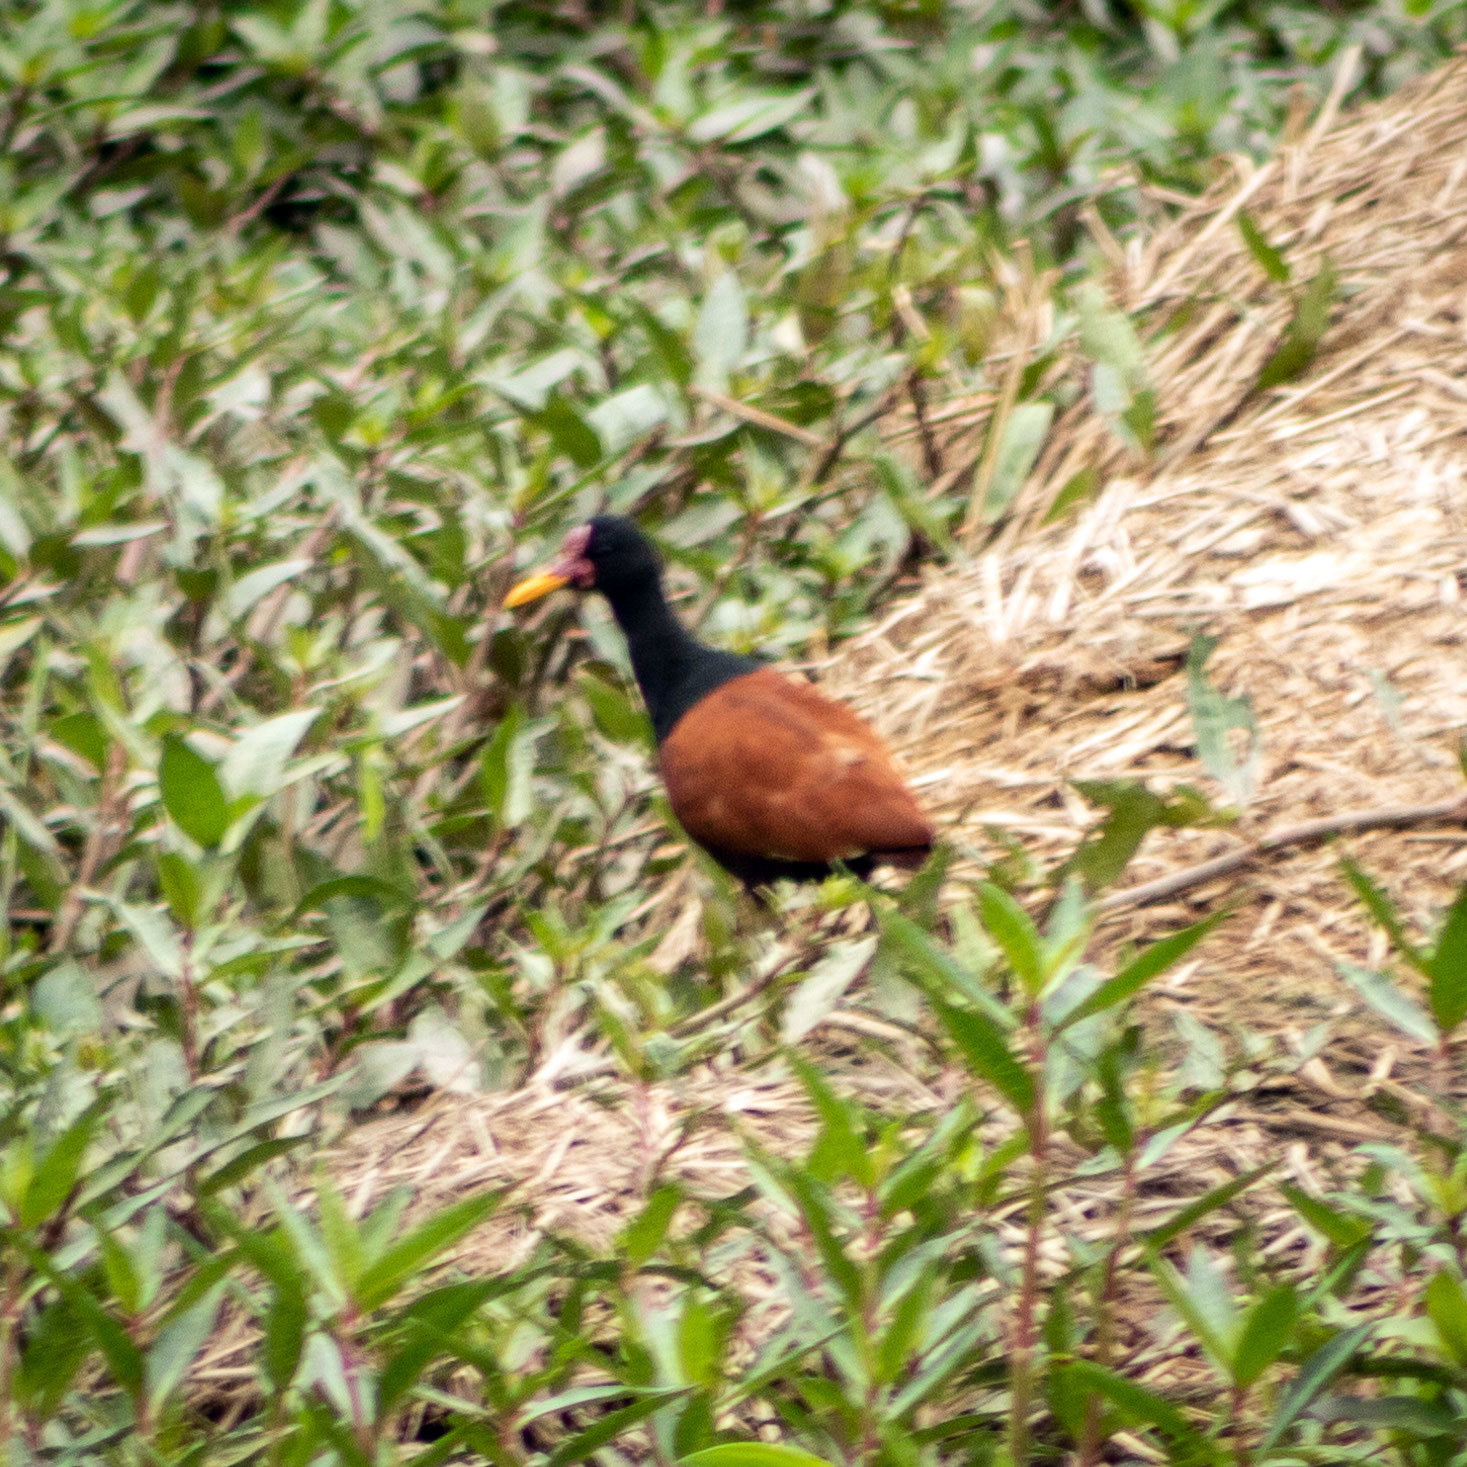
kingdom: Animalia
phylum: Chordata
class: Aves
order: Charadriiformes
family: Jacanidae
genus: Jacana
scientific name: Jacana jacana
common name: Wattled jacana
